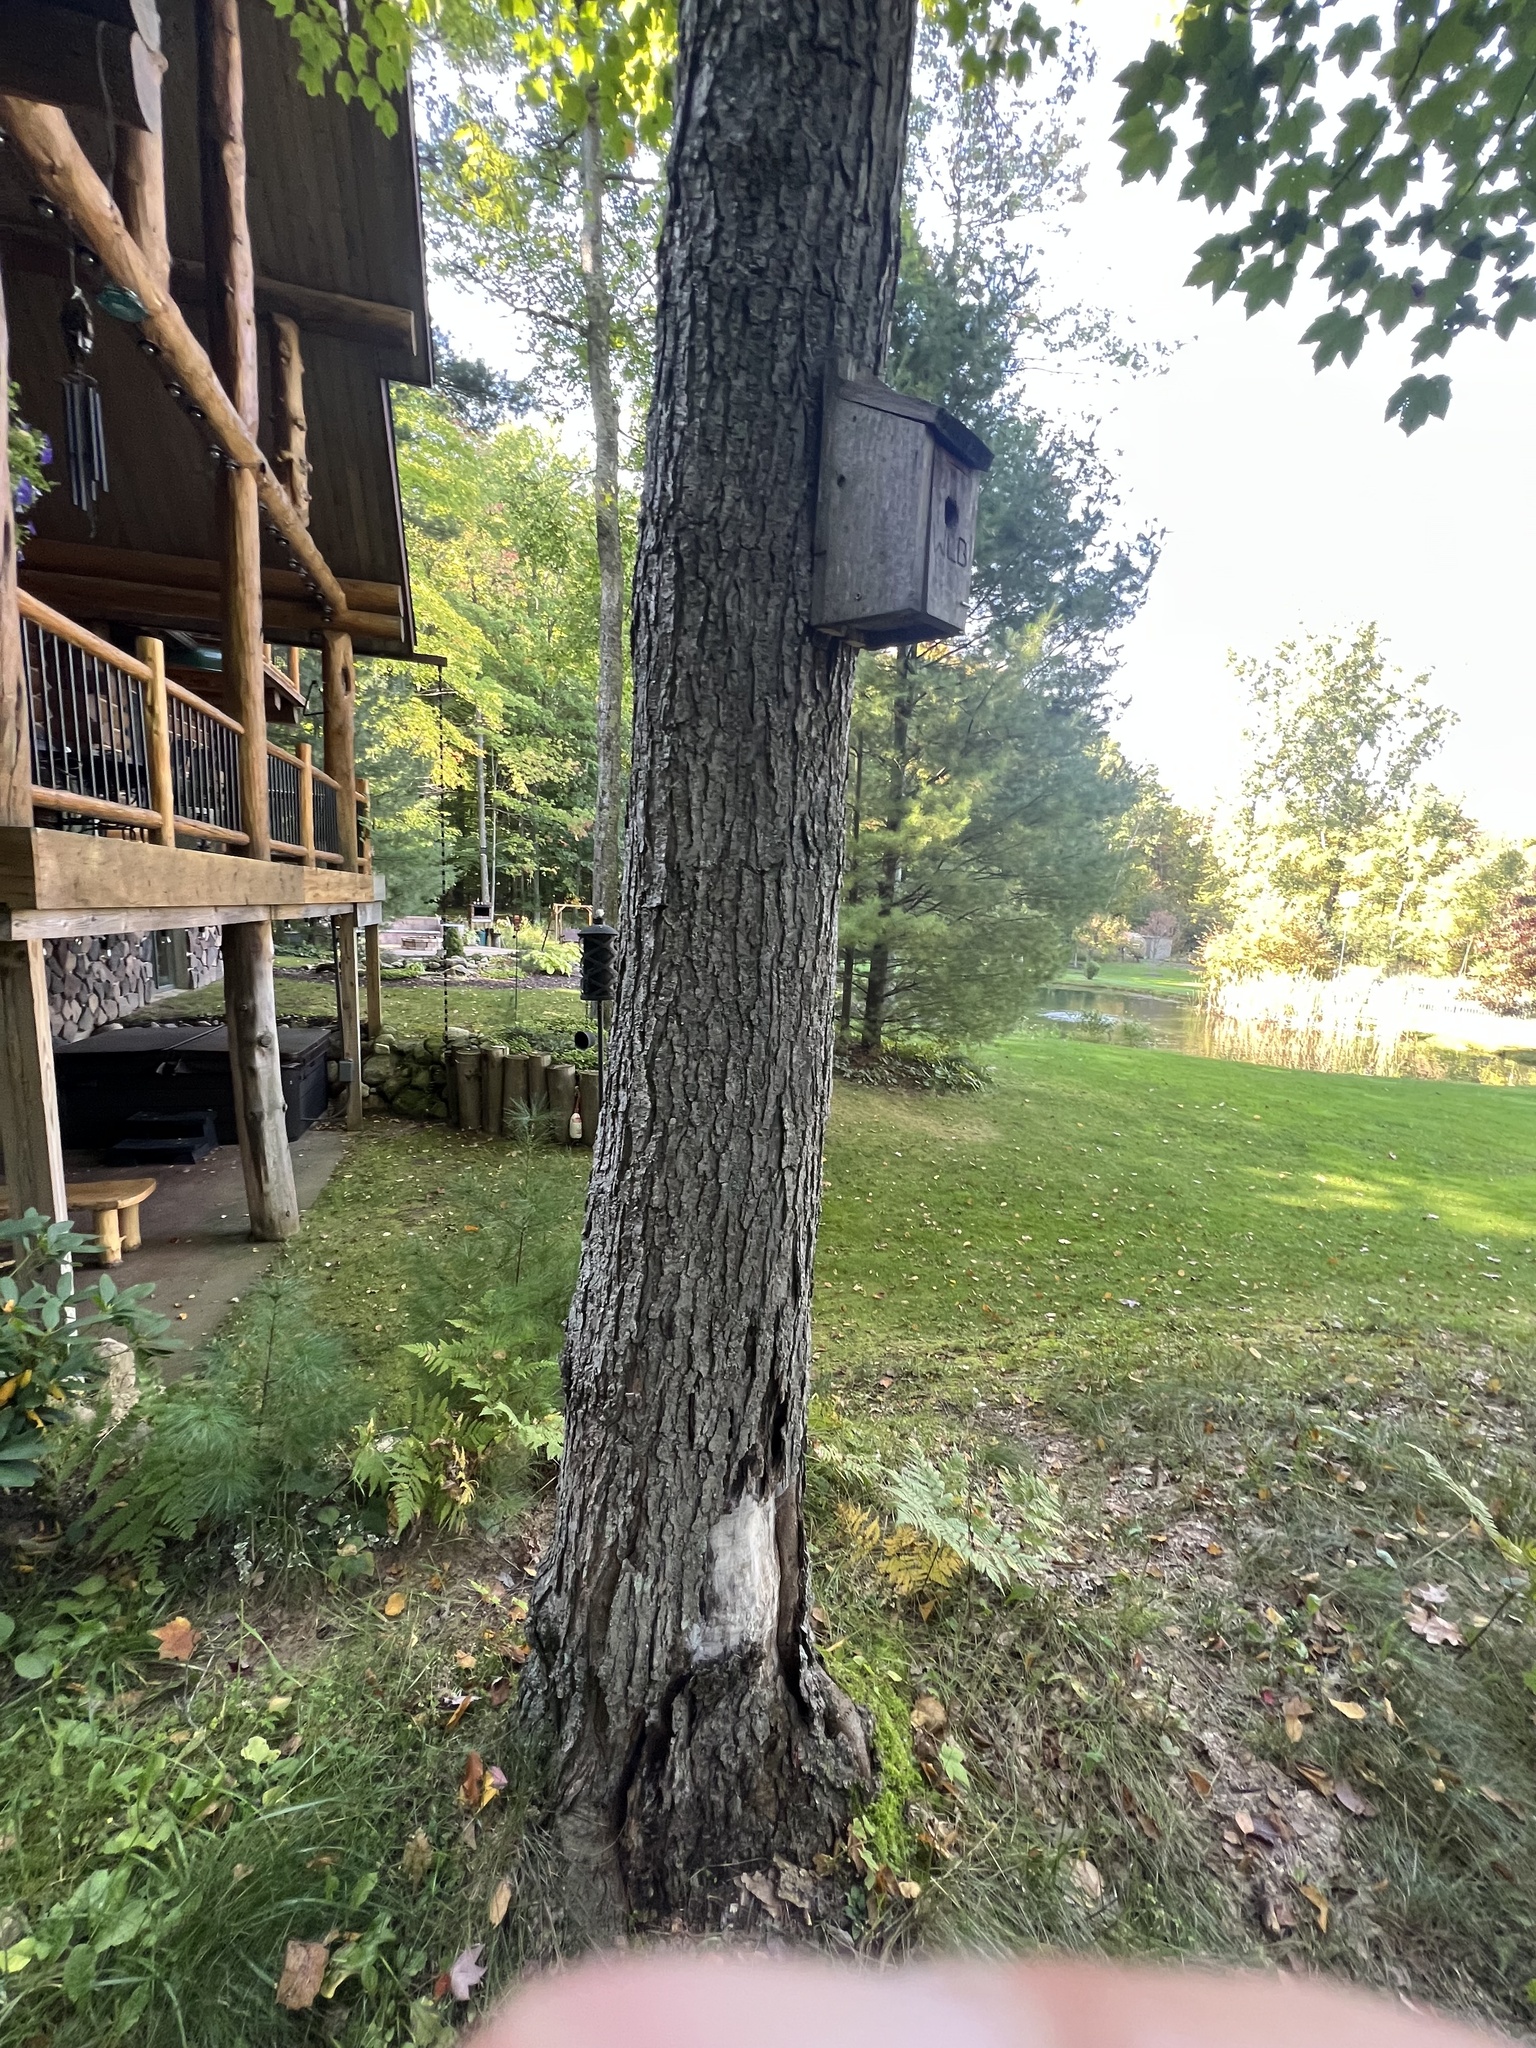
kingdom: Plantae
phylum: Tracheophyta
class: Magnoliopsida
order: Sapindales
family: Sapindaceae
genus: Acer
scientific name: Acer rubrum
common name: Red maple
